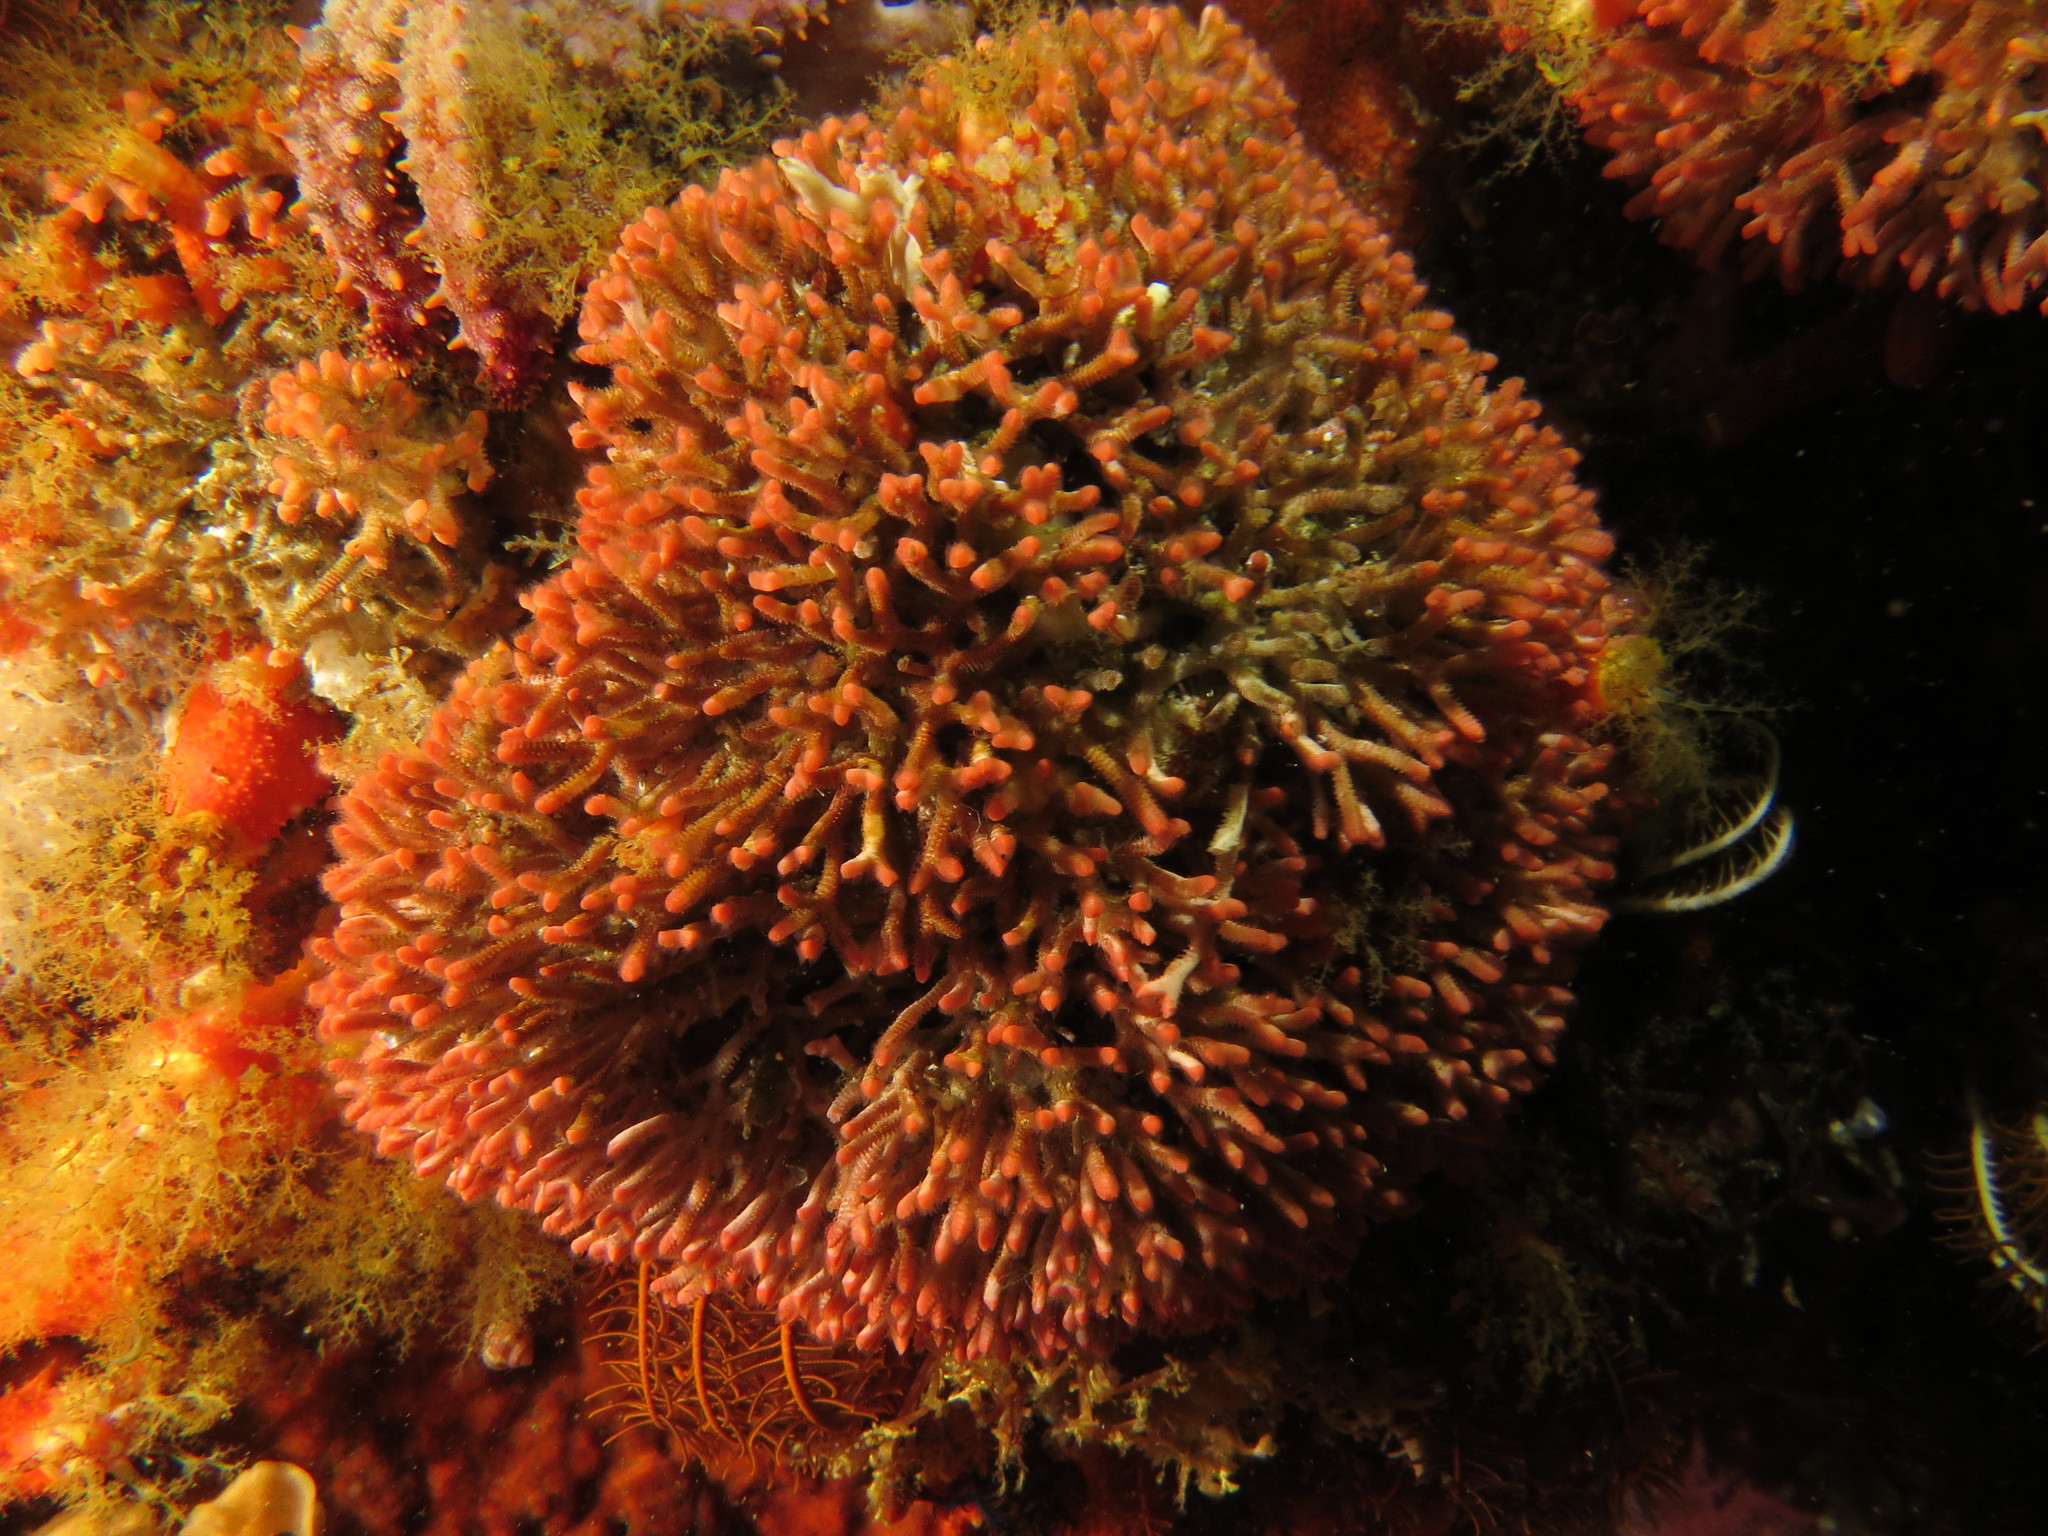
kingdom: Animalia
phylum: Bryozoa
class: Gymnolaemata
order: Cheilostomatida
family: Margarettidae
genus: Margaretta
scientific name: Margaretta levinseni
